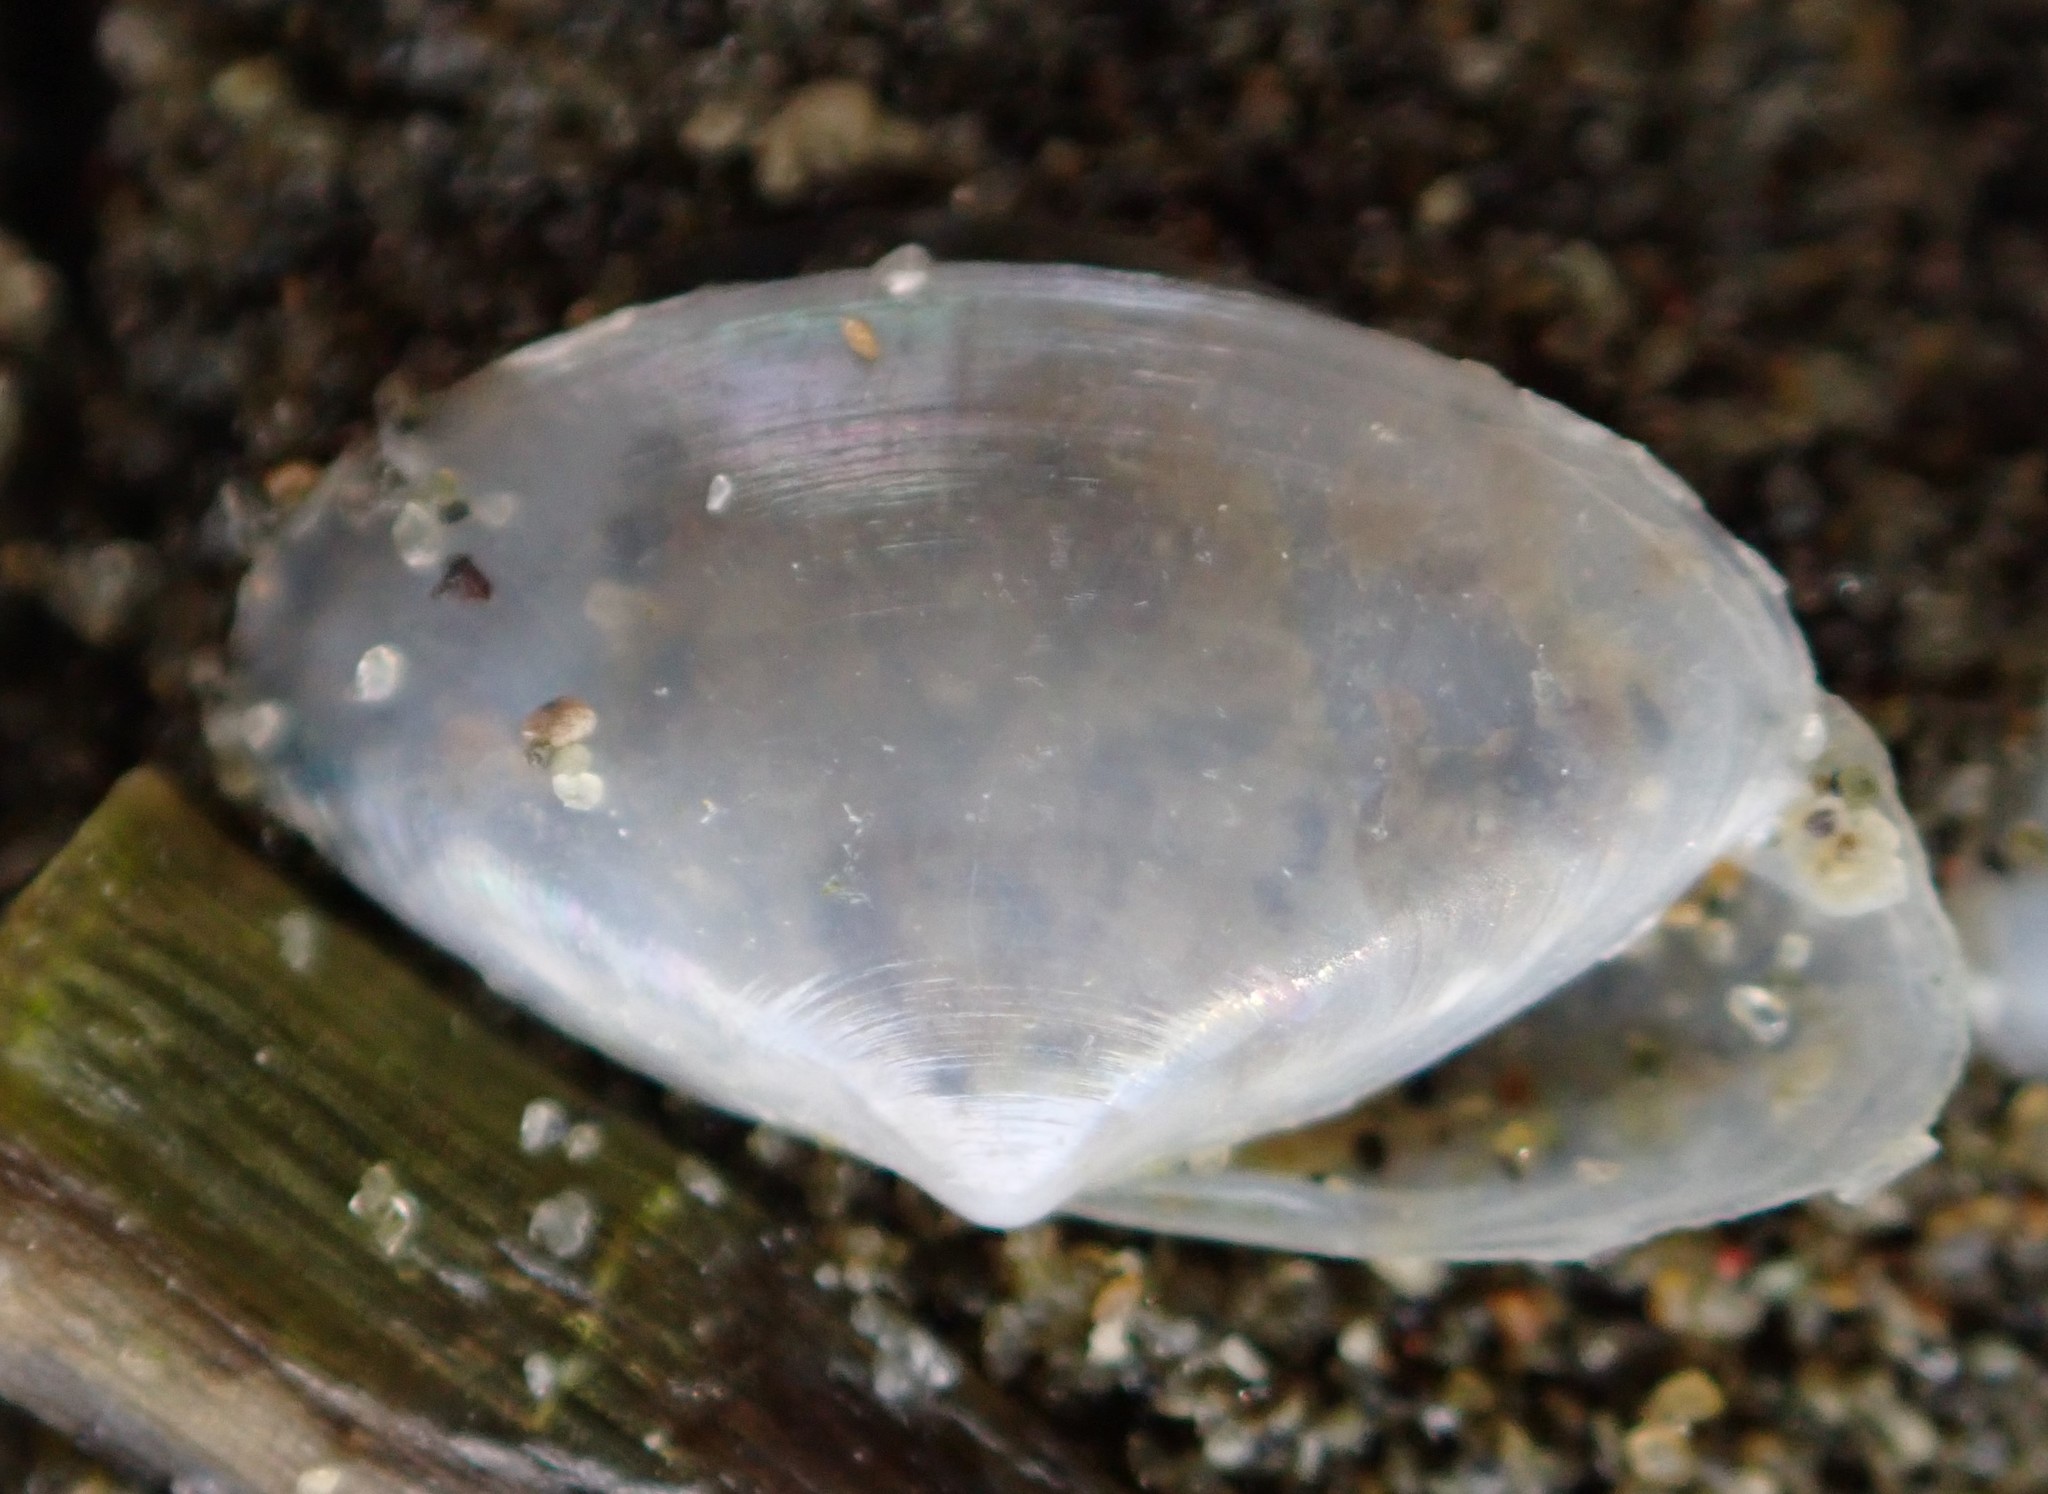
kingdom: Animalia
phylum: Mollusca
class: Bivalvia
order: Venerida
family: Mactridae
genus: Scalpomactra
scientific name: Scalpomactra scalpellum
